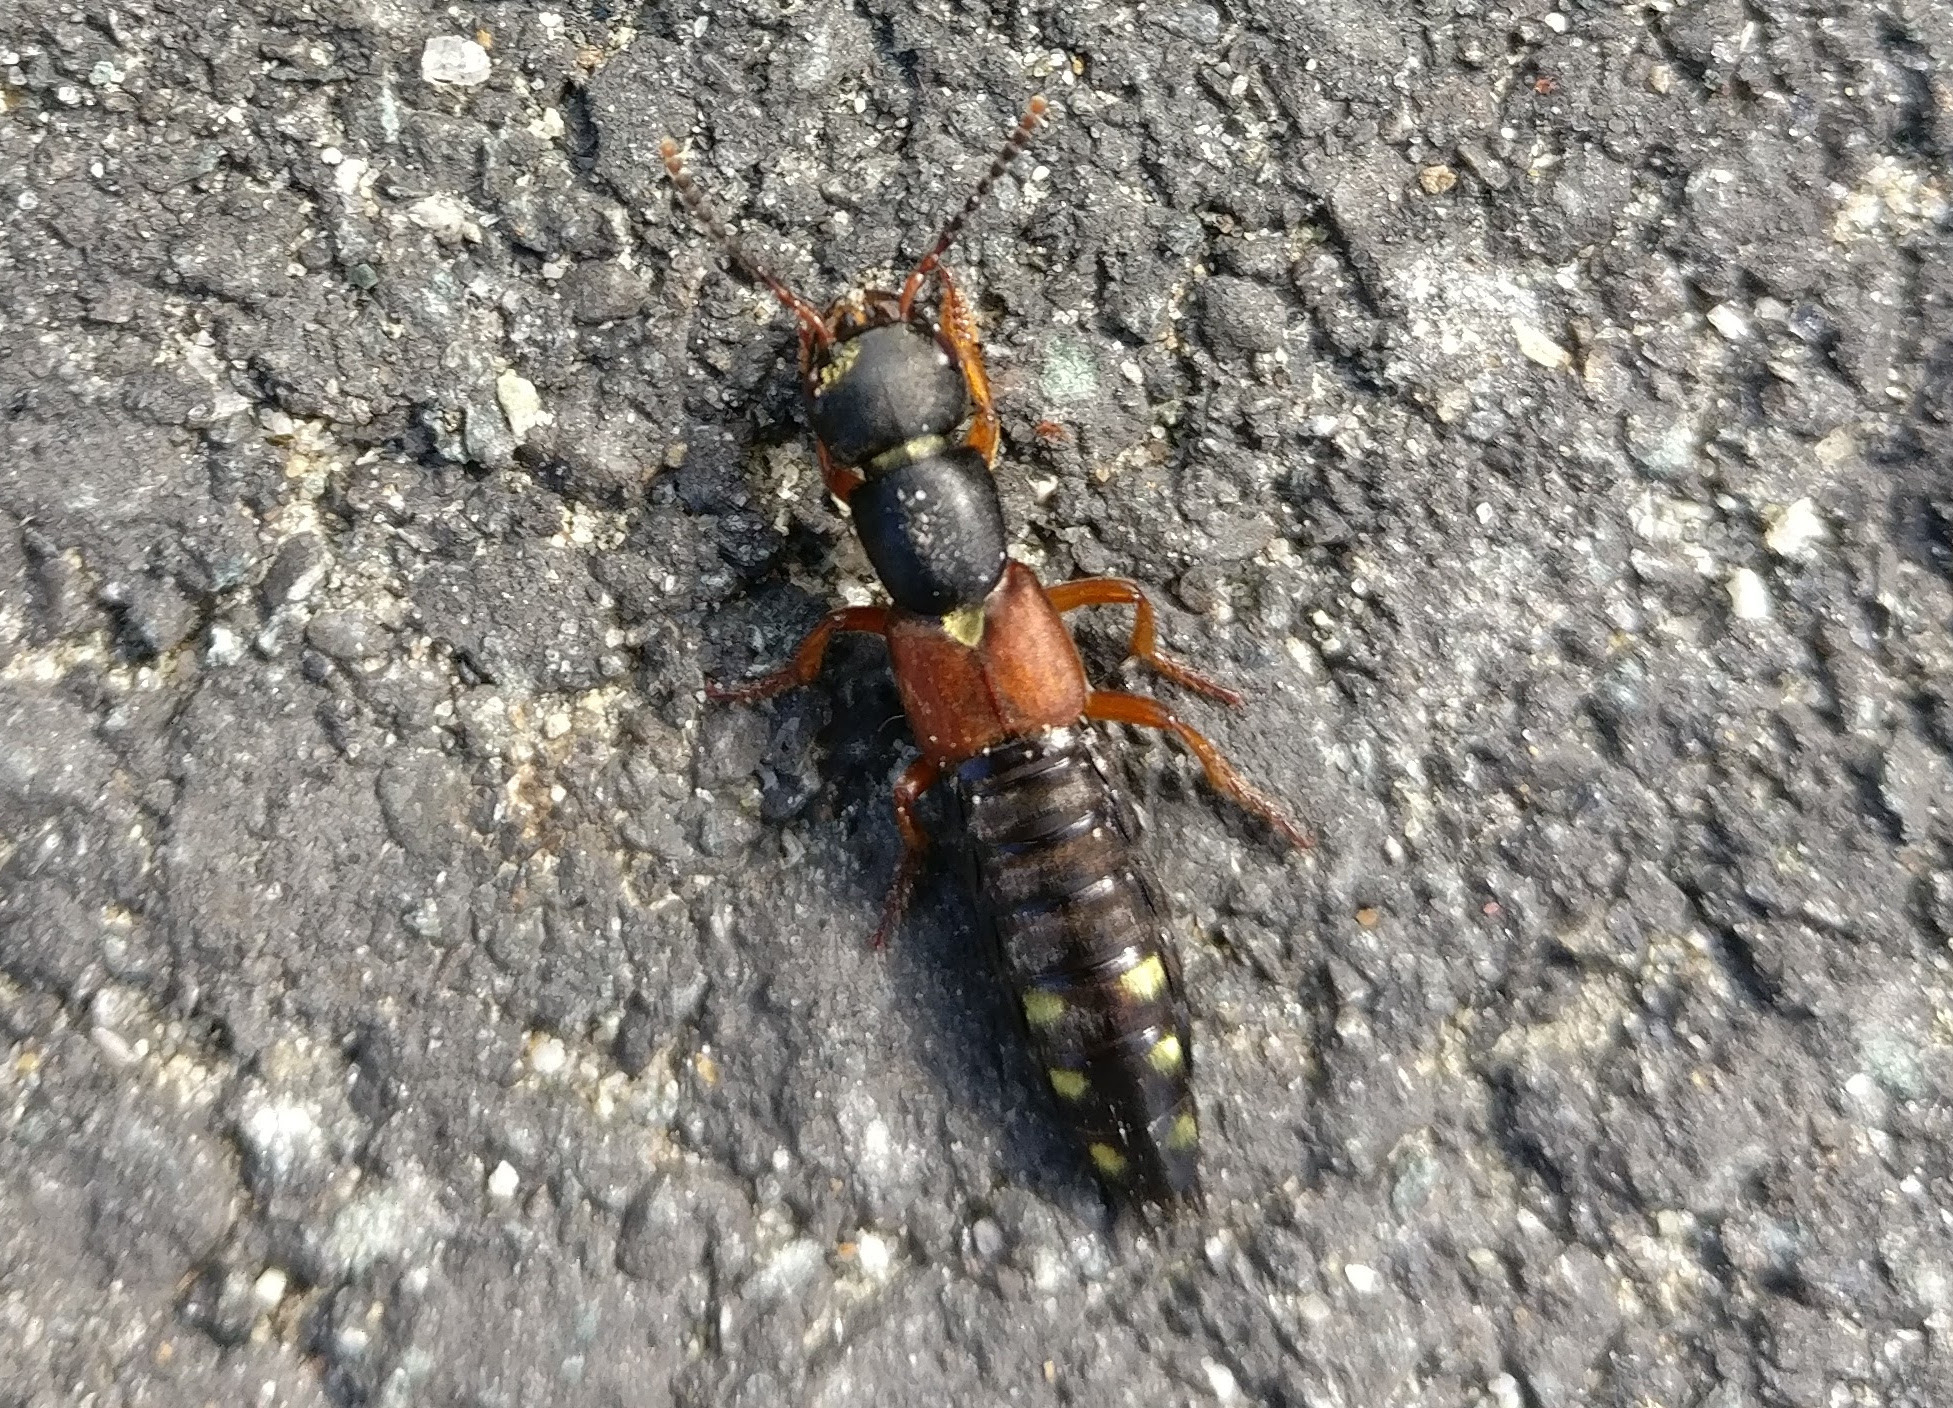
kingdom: Animalia
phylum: Arthropoda
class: Insecta
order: Coleoptera
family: Staphylinidae
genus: Staphylinus
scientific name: Staphylinus erythropterus
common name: Staph beetle
